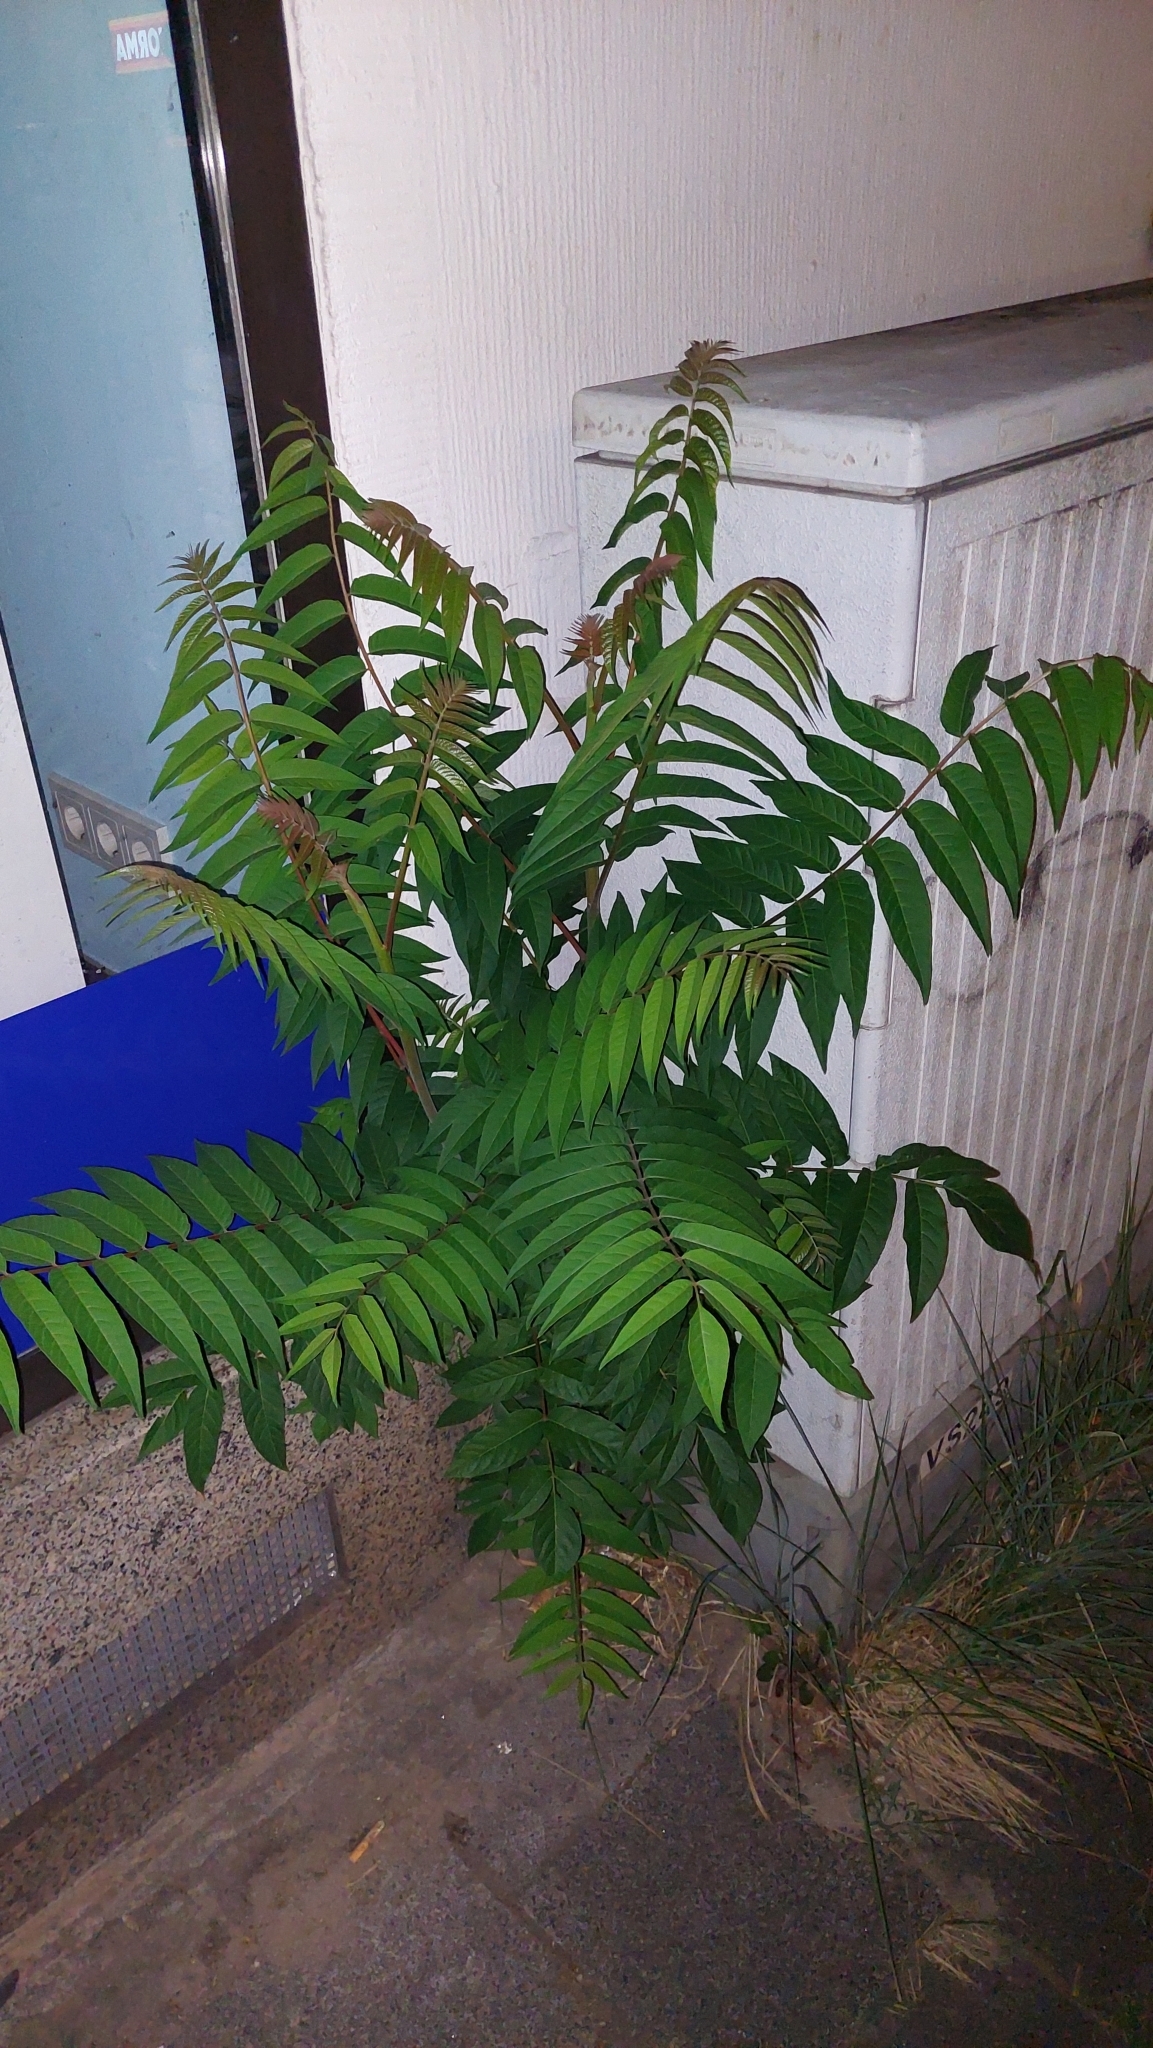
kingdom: Plantae
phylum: Tracheophyta
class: Magnoliopsida
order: Sapindales
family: Simaroubaceae
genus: Ailanthus
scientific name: Ailanthus altissima
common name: Tree-of-heaven
